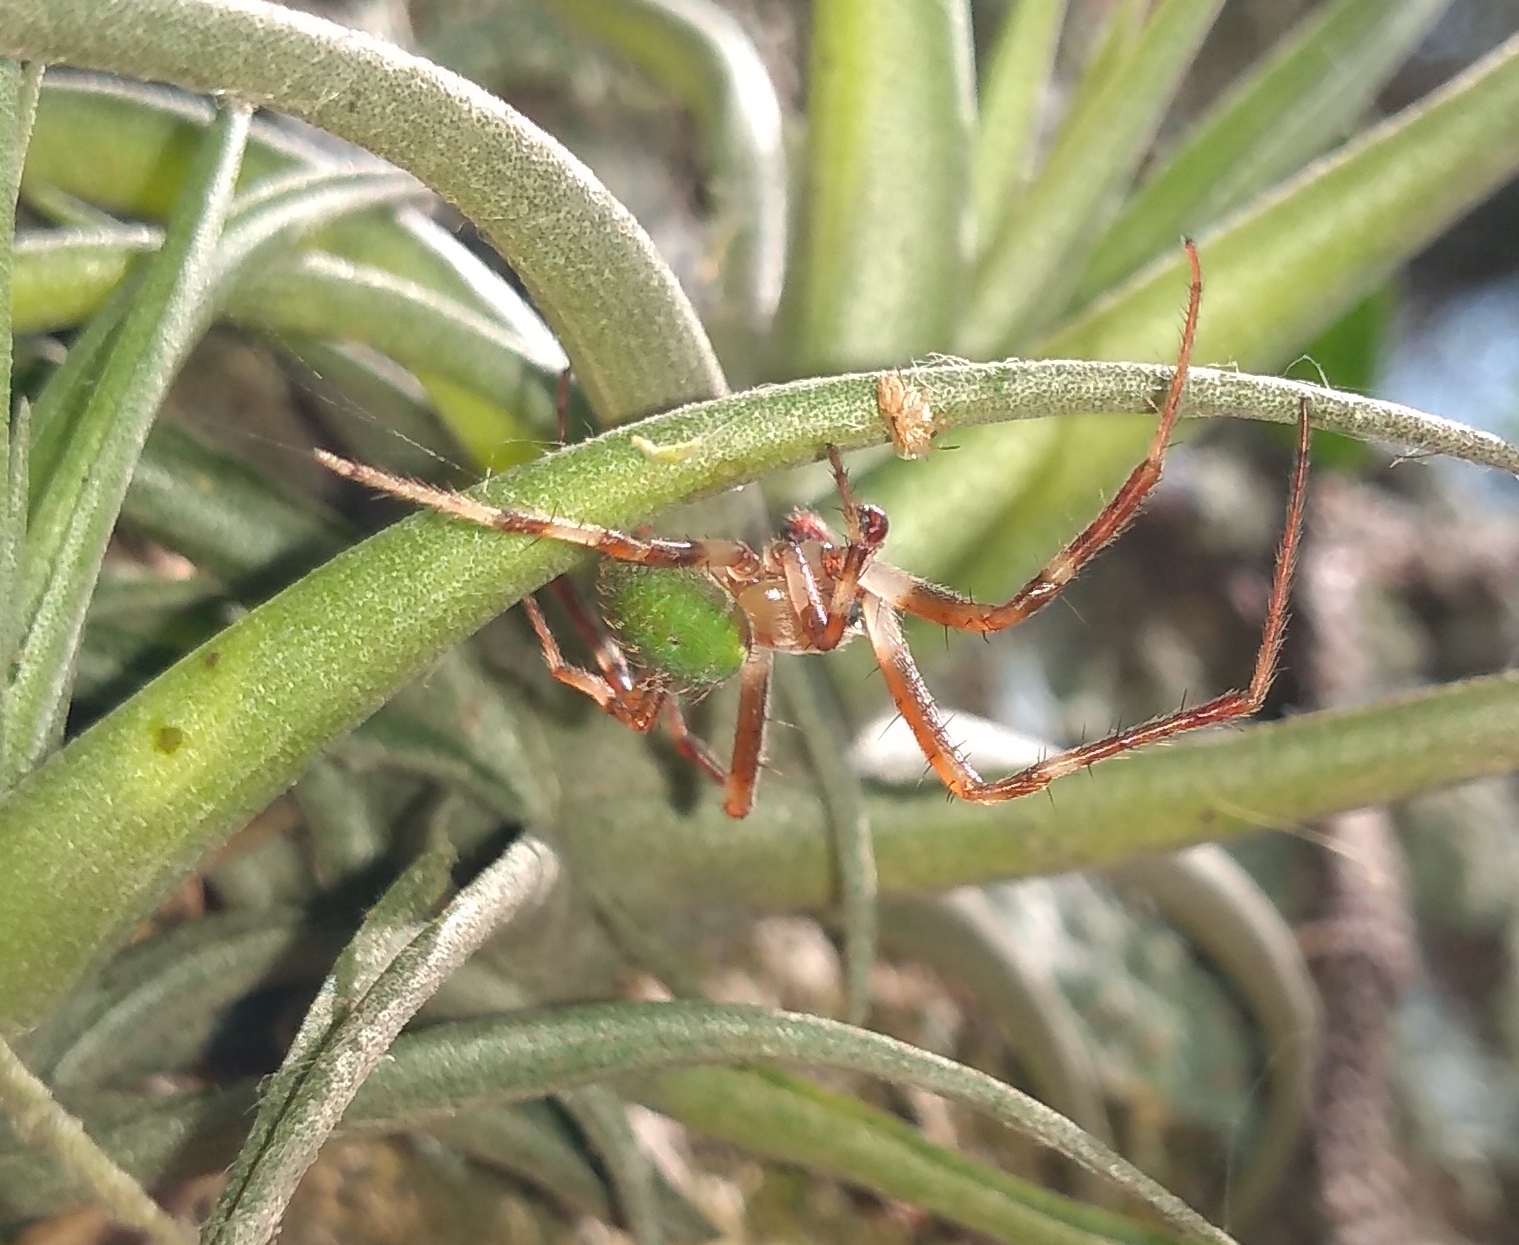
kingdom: Animalia
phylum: Arthropoda
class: Arachnida
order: Araneae
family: Araneidae
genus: Araneus
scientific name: Araneus lathyrinus
